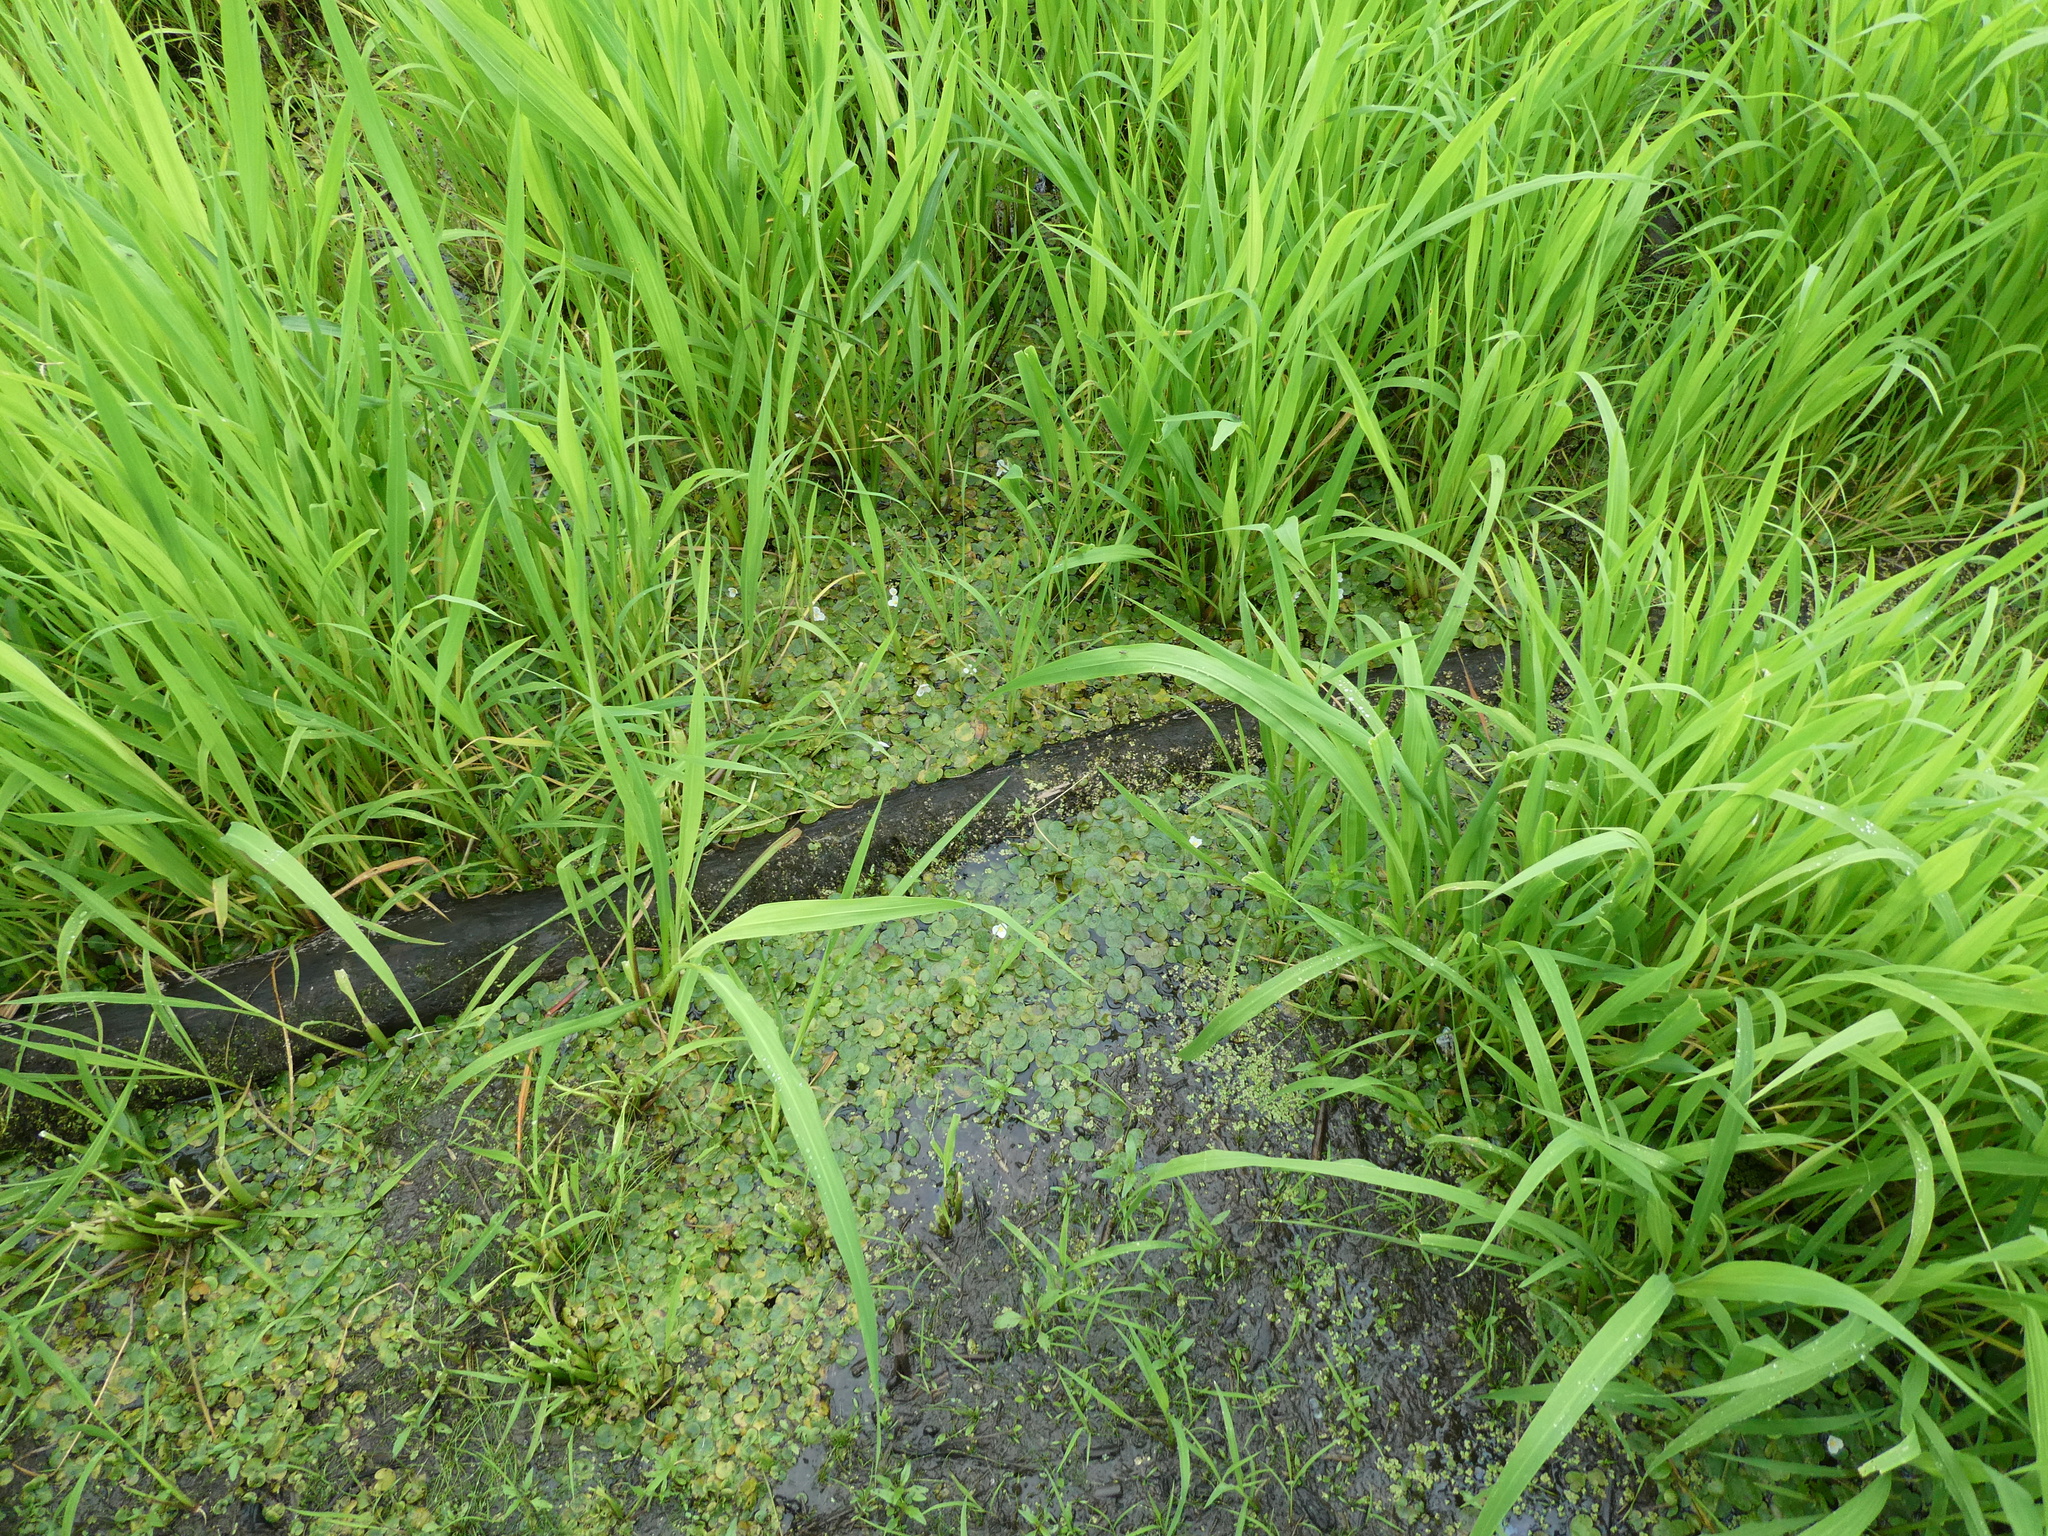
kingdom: Plantae
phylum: Tracheophyta
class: Liliopsida
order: Alismatales
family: Hydrocharitaceae
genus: Hydrocharis
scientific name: Hydrocharis morsus-ranae
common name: Frogbit
